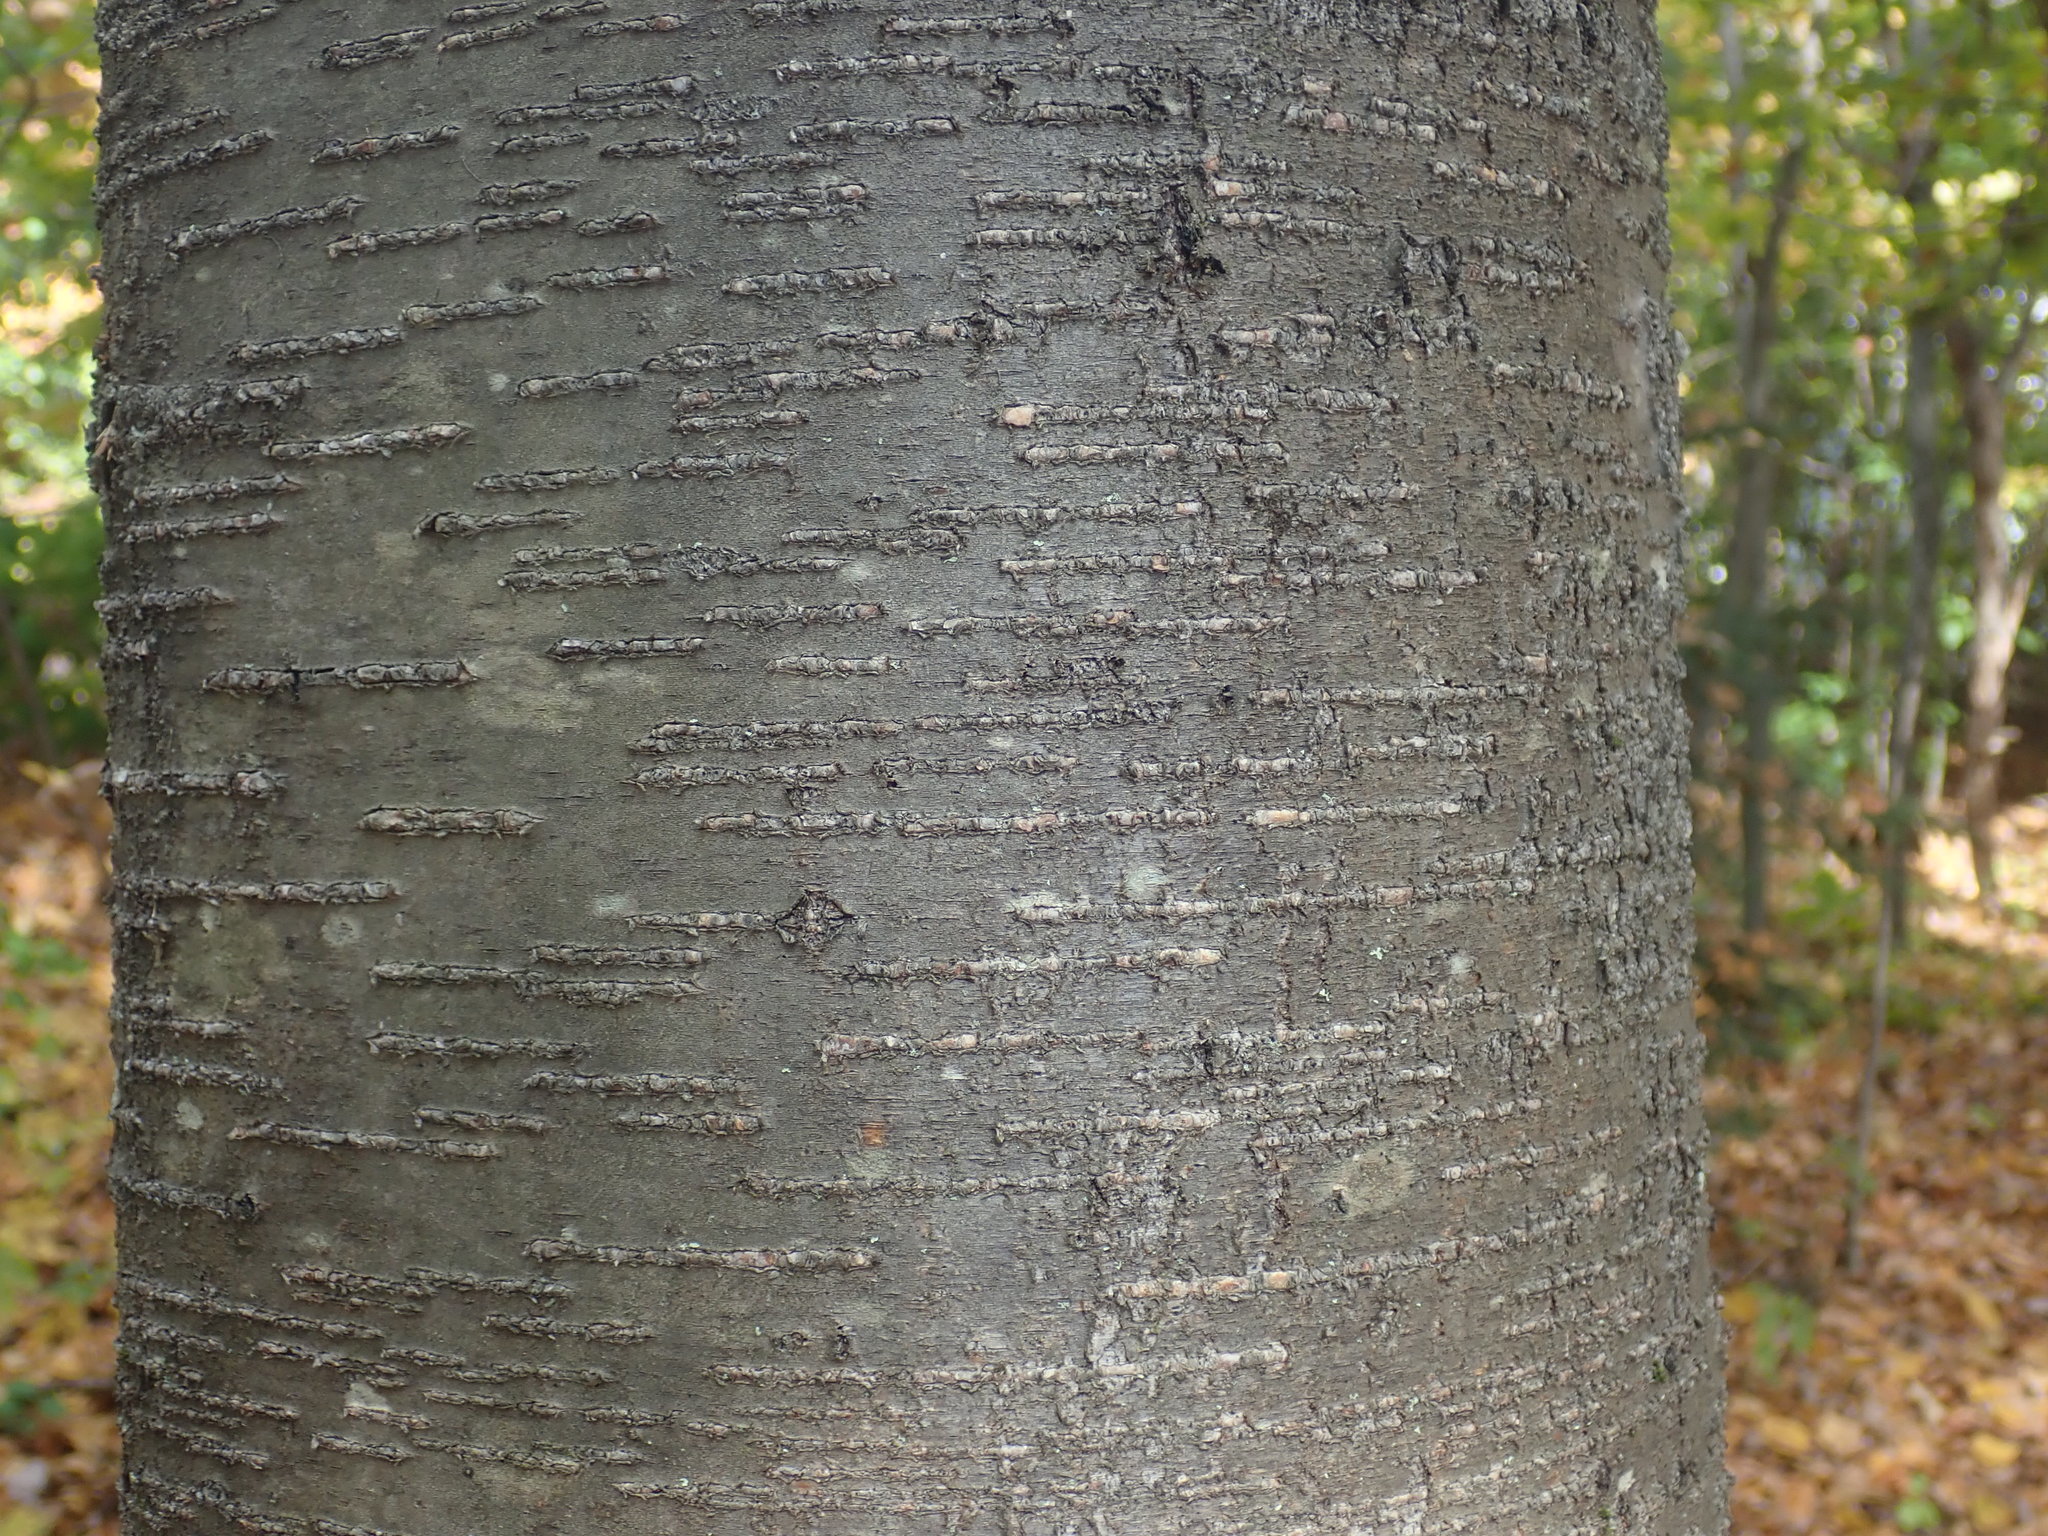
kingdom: Plantae
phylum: Tracheophyta
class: Magnoliopsida
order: Fagales
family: Betulaceae
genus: Betula
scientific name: Betula lenta
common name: Black birch
